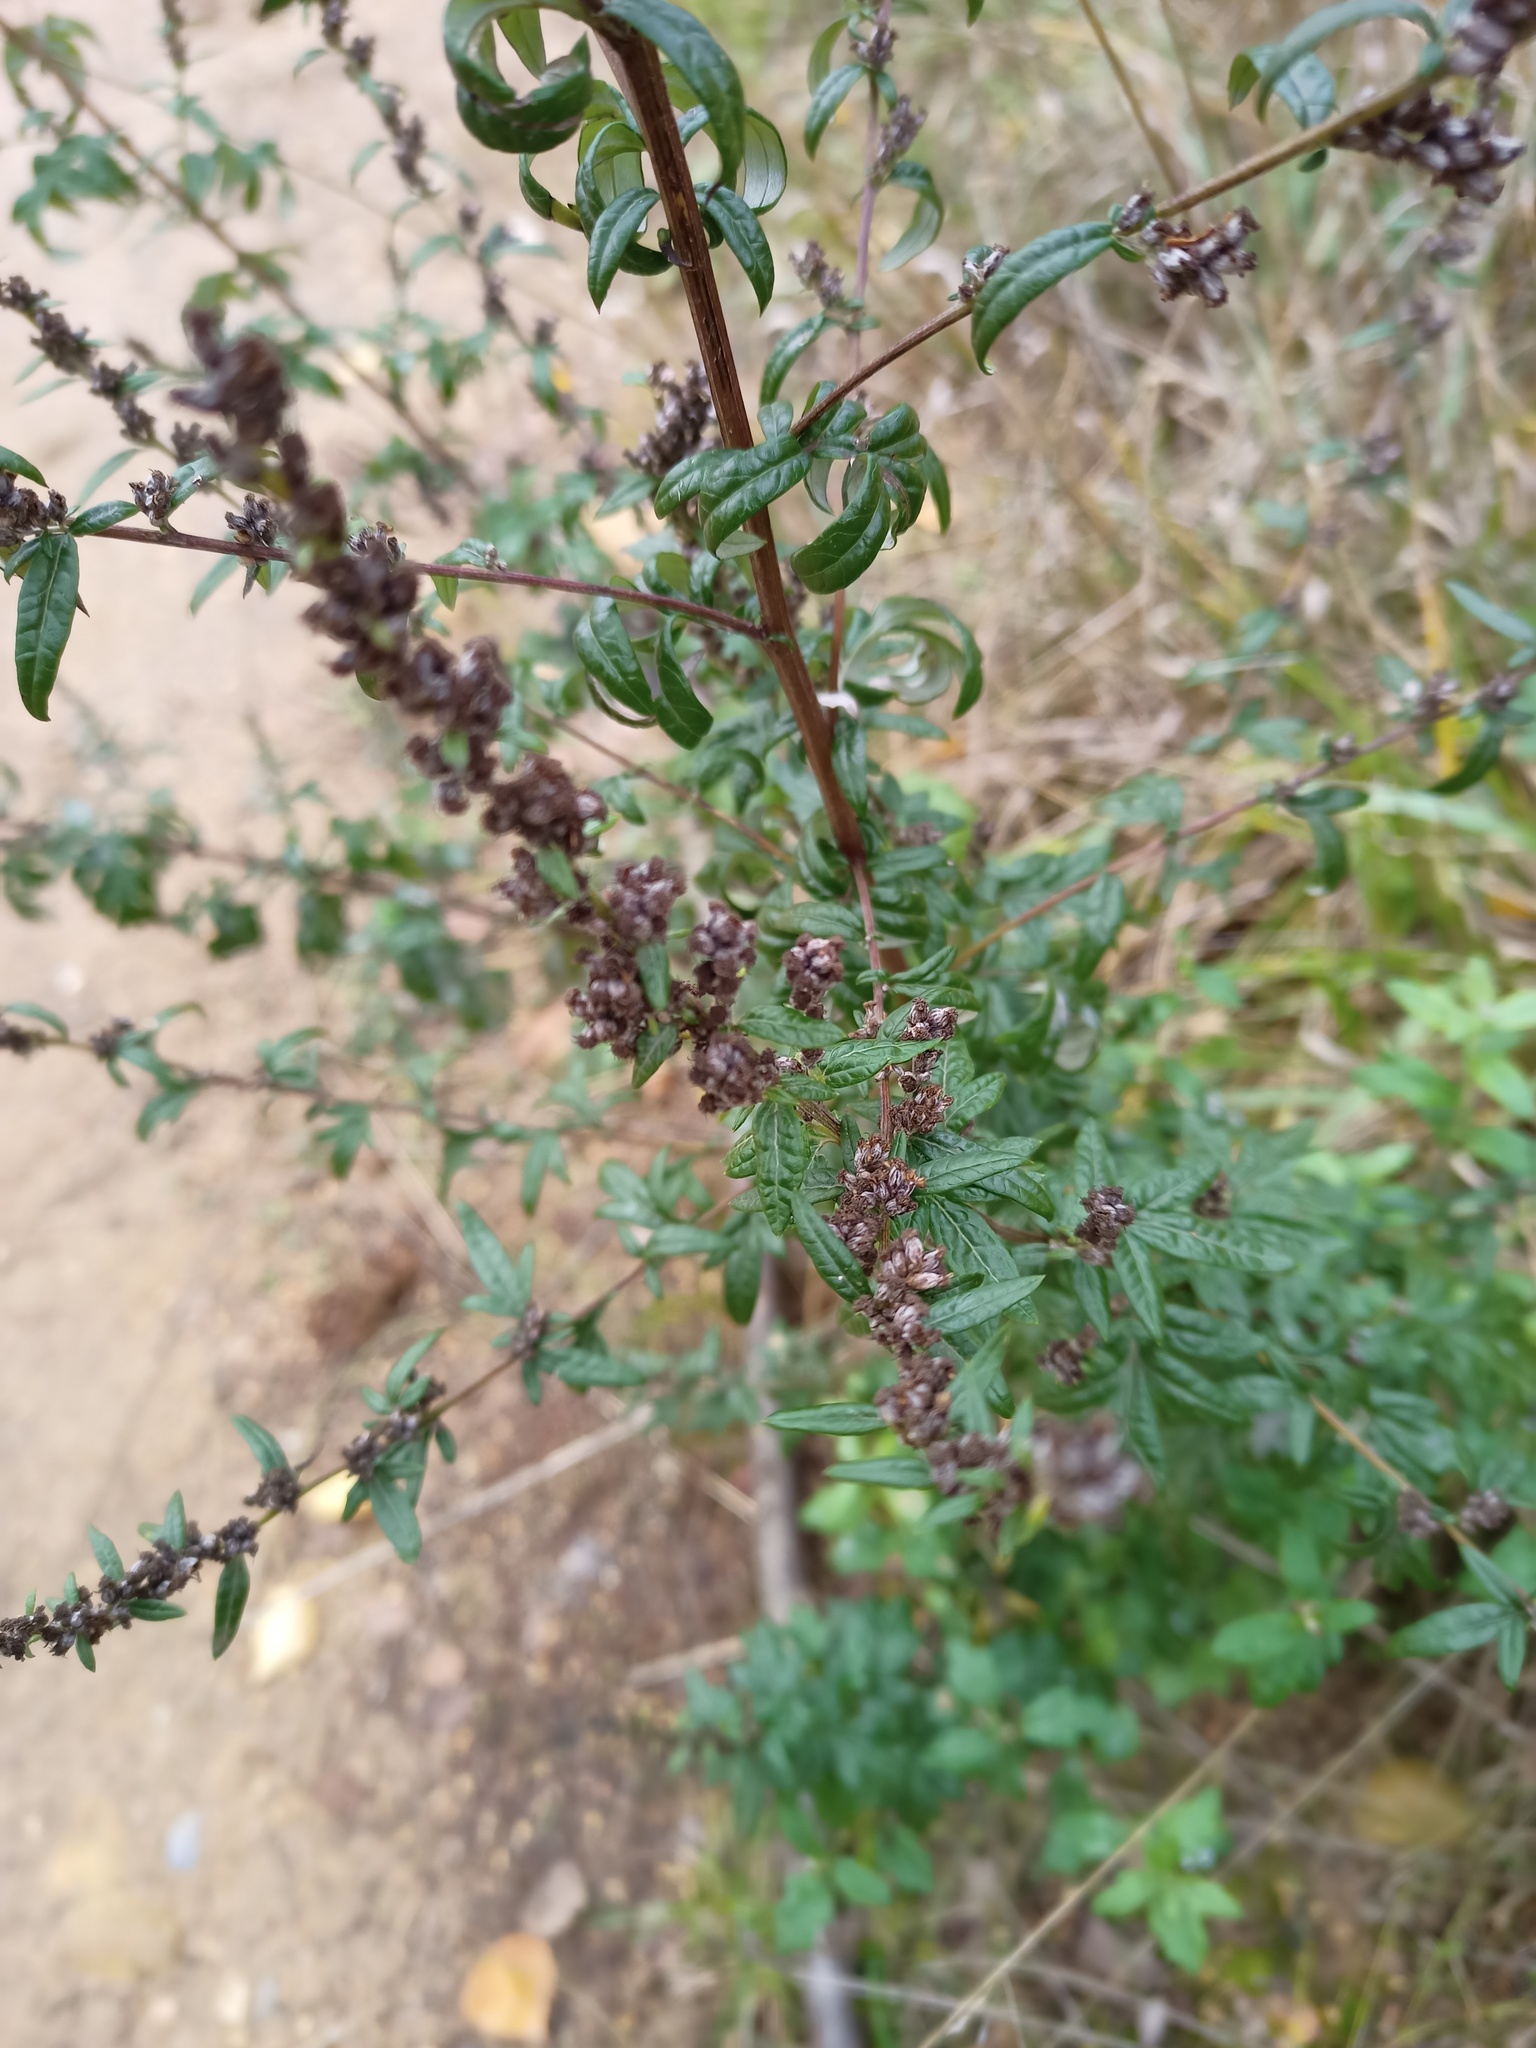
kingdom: Plantae
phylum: Tracheophyta
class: Magnoliopsida
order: Asterales
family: Asteraceae
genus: Artemisia
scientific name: Artemisia vulgaris
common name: Mugwort
